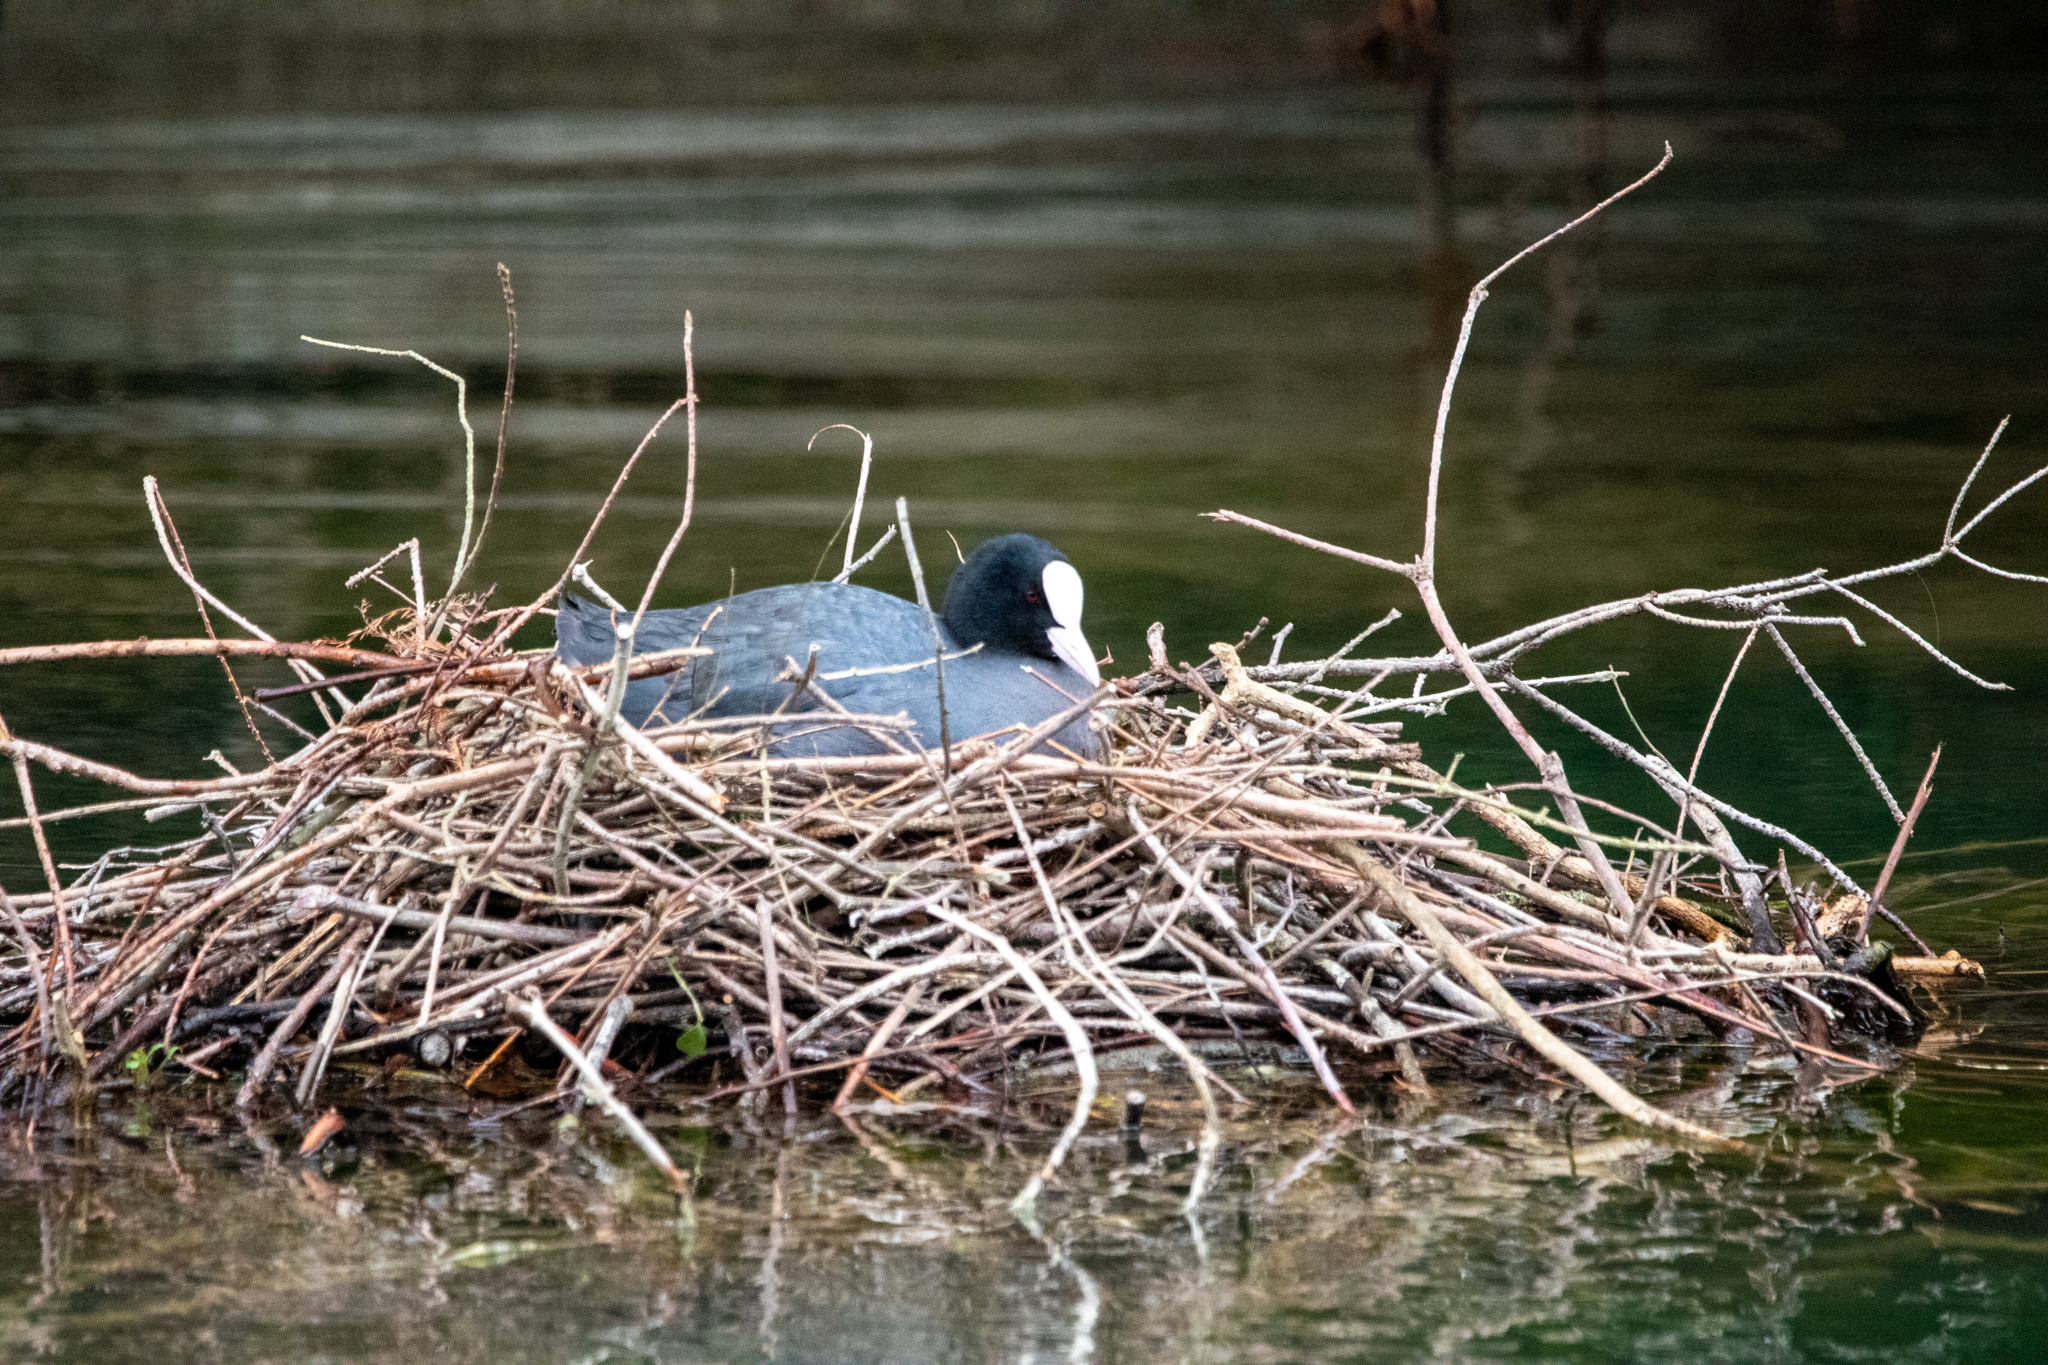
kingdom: Animalia
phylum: Chordata
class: Aves
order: Gruiformes
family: Rallidae
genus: Fulica
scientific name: Fulica atra
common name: Eurasian coot
